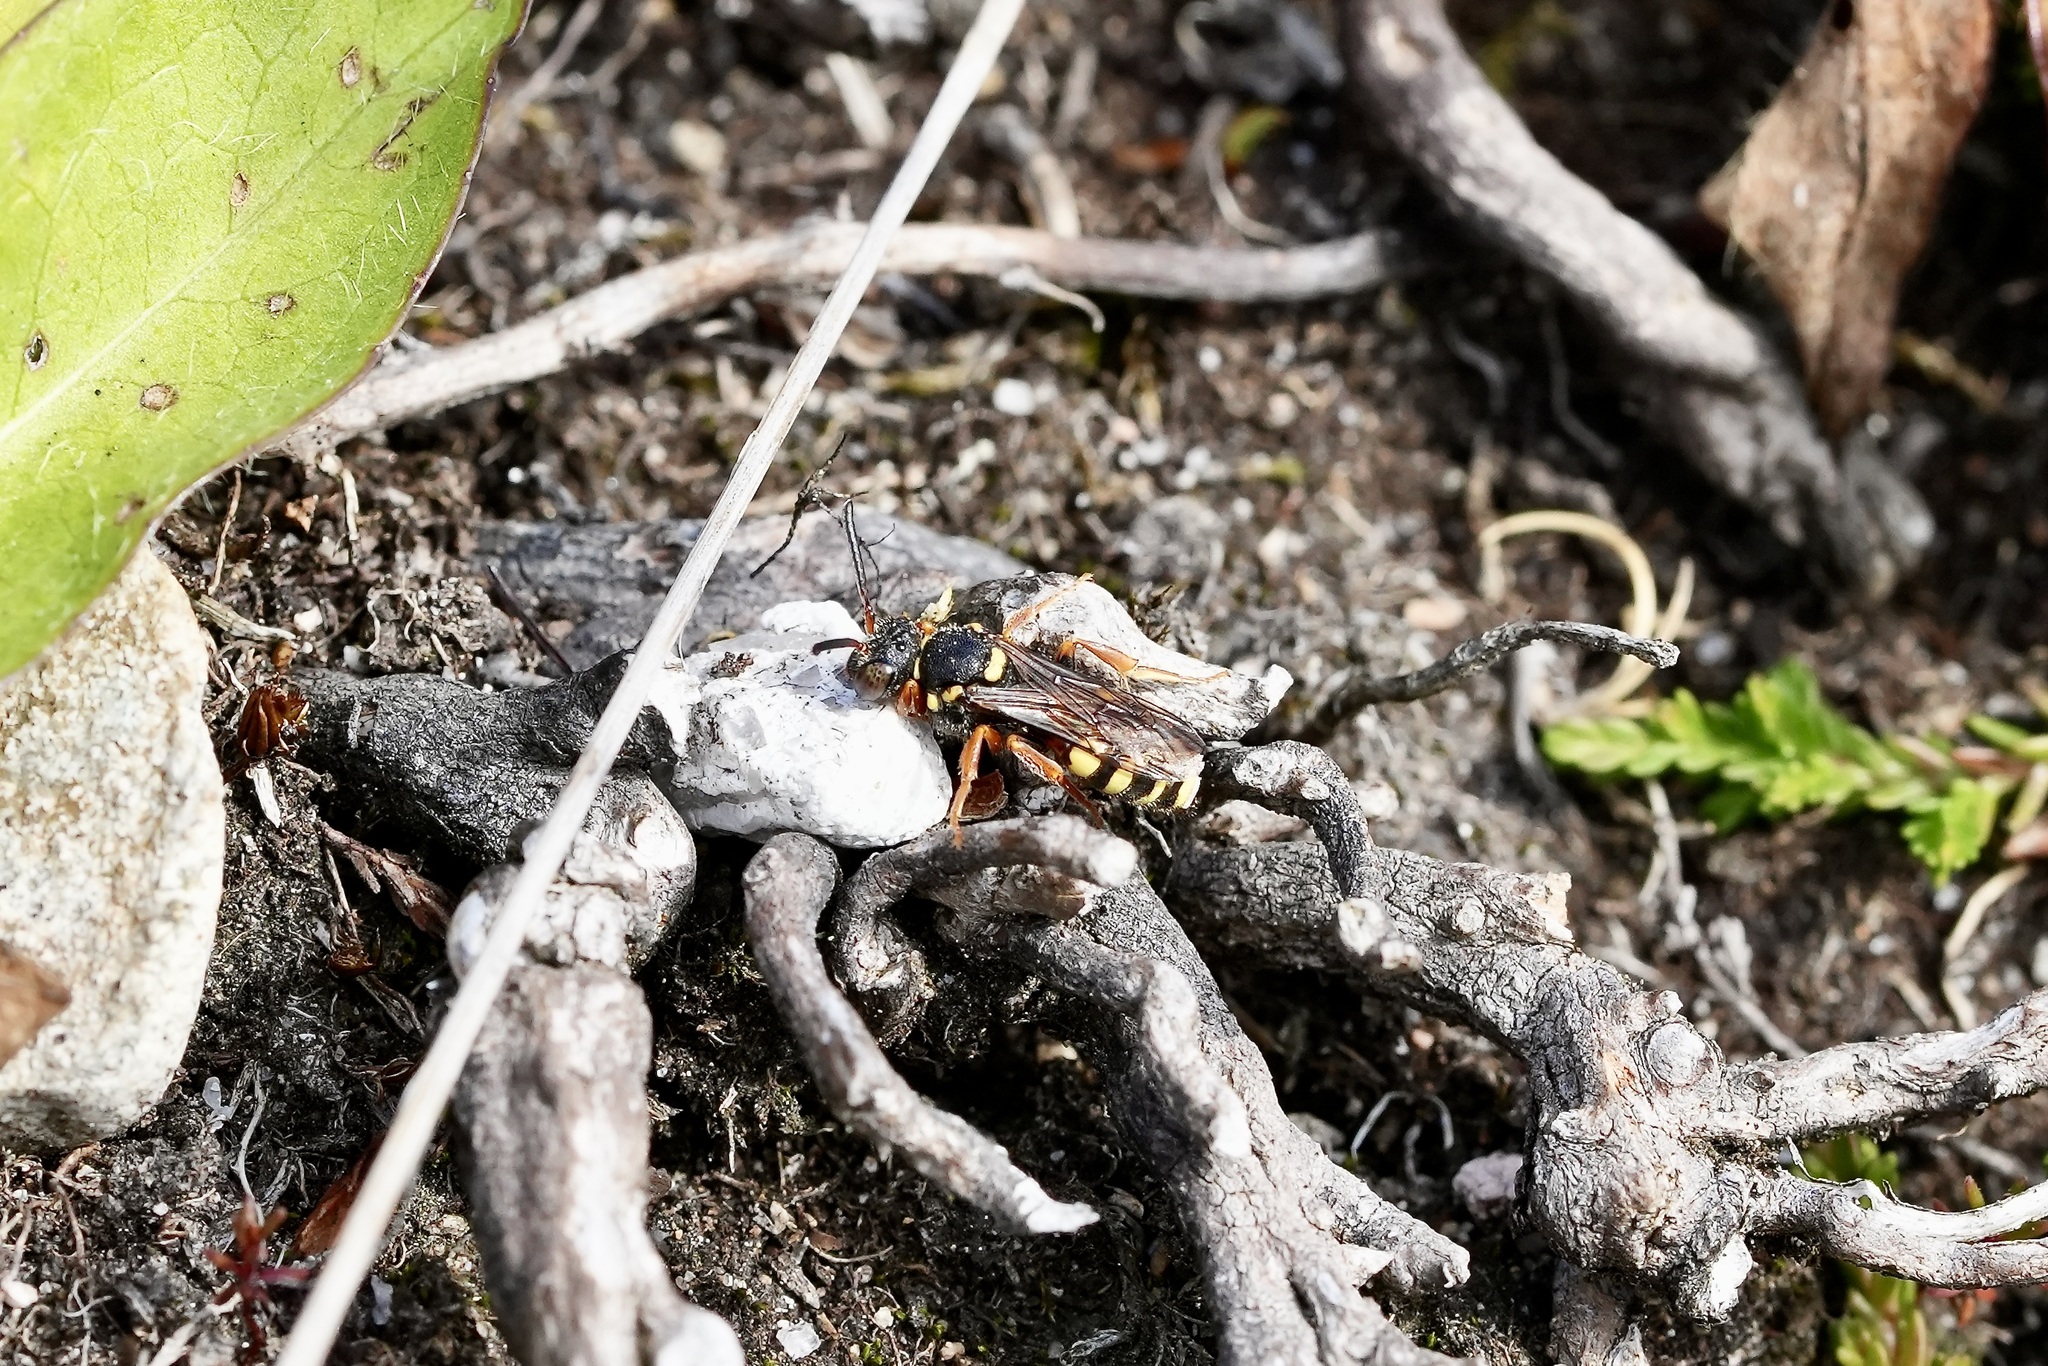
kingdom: Animalia
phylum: Arthropoda
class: Insecta
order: Hymenoptera
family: Apidae
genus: Nomada
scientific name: Nomada rufipes
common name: Black-horned nomad bee
